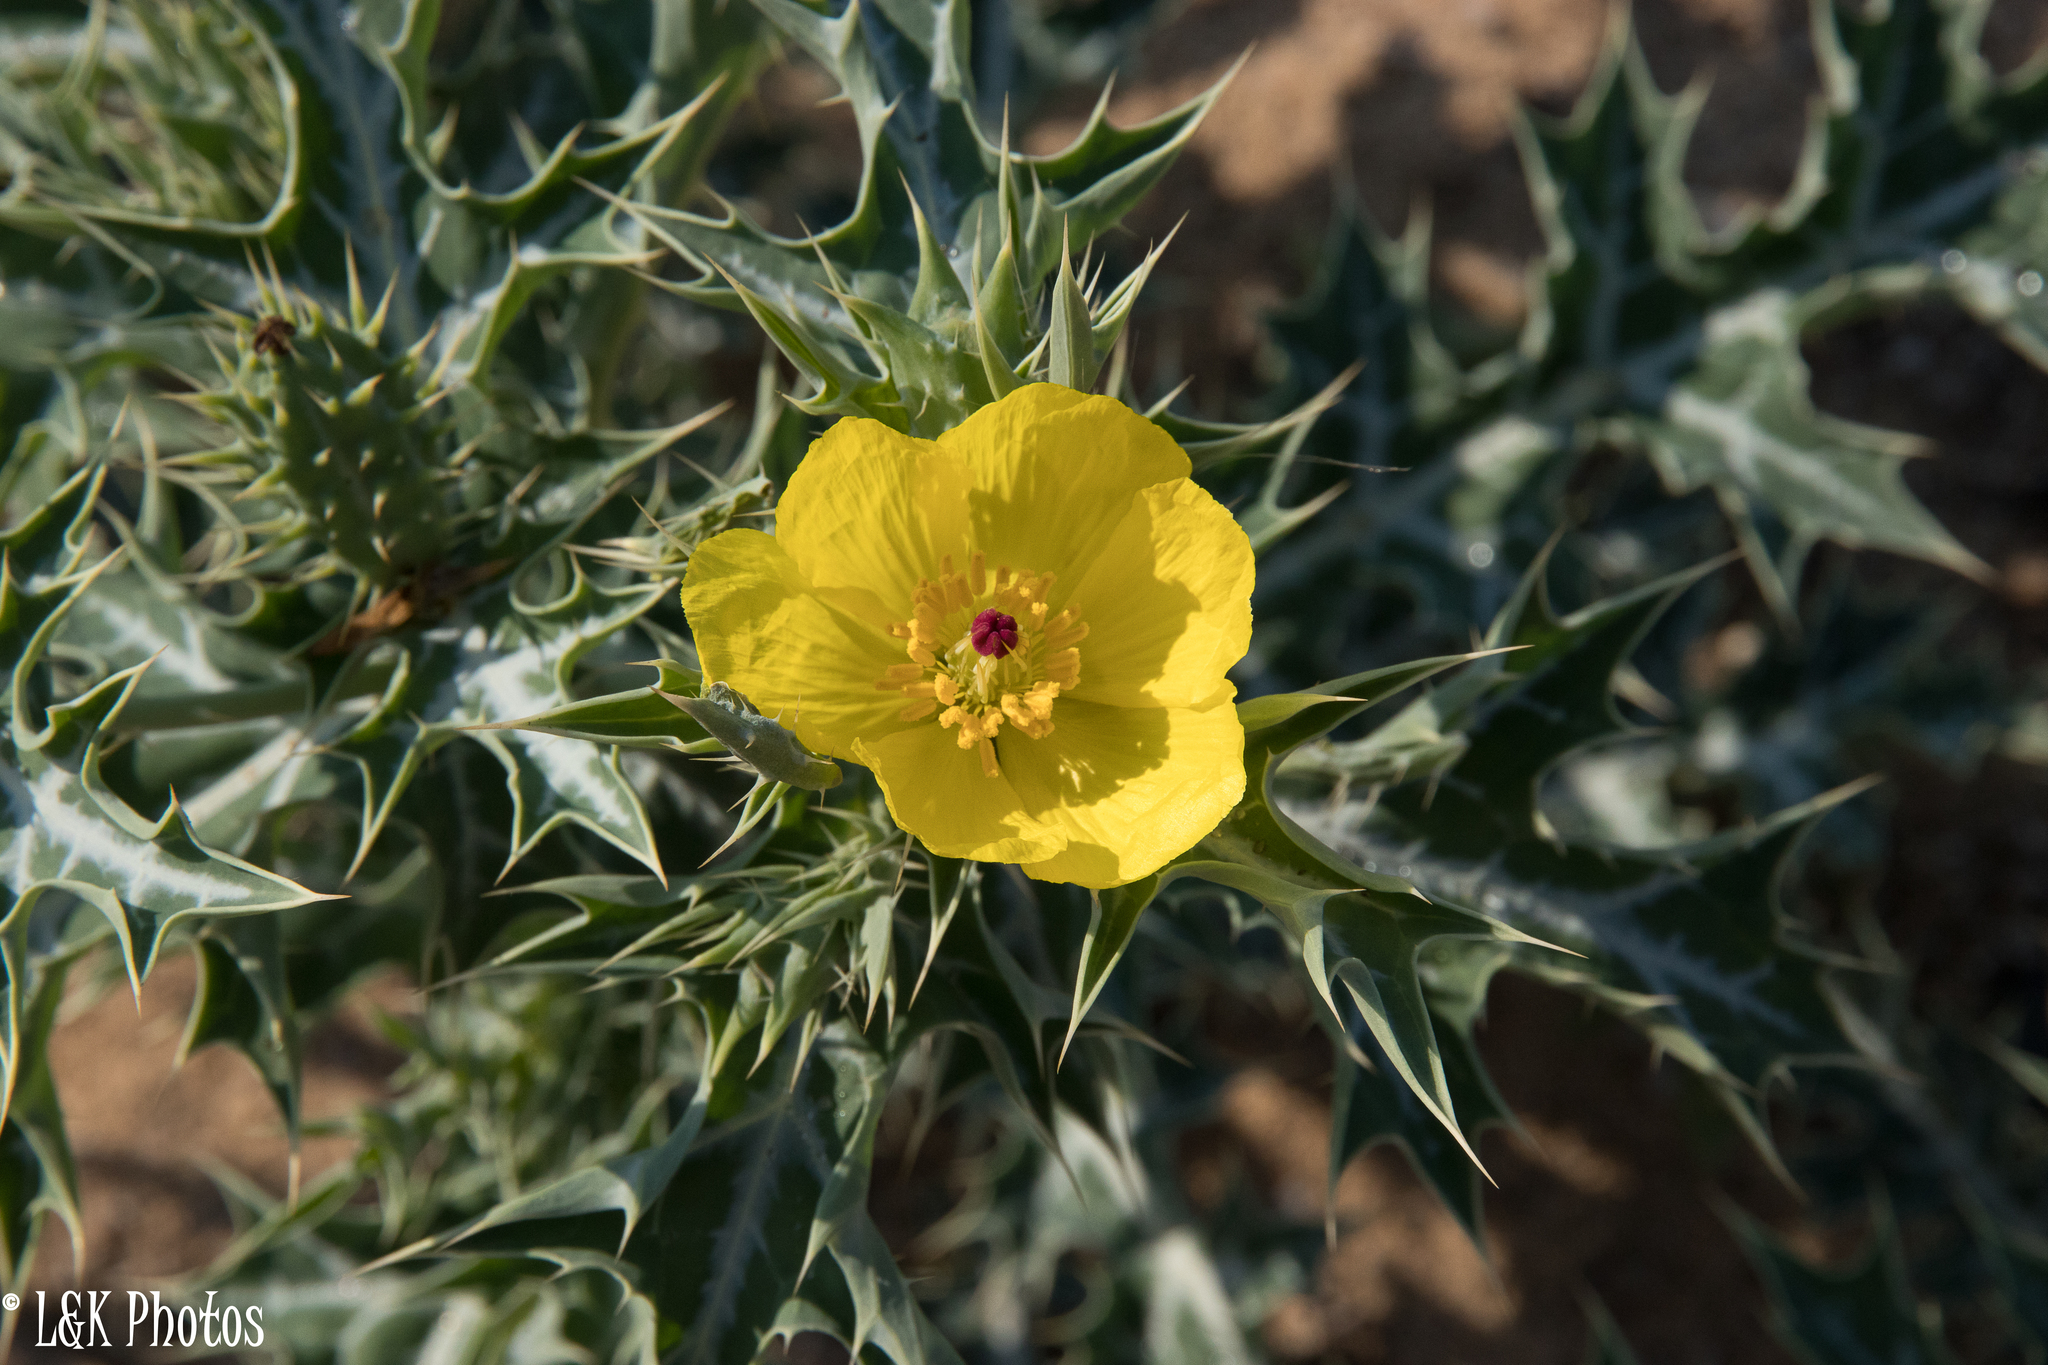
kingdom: Plantae
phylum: Tracheophyta
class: Magnoliopsida
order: Ranunculales
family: Papaveraceae
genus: Argemone
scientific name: Argemone mexicana
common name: Mexican poppy
